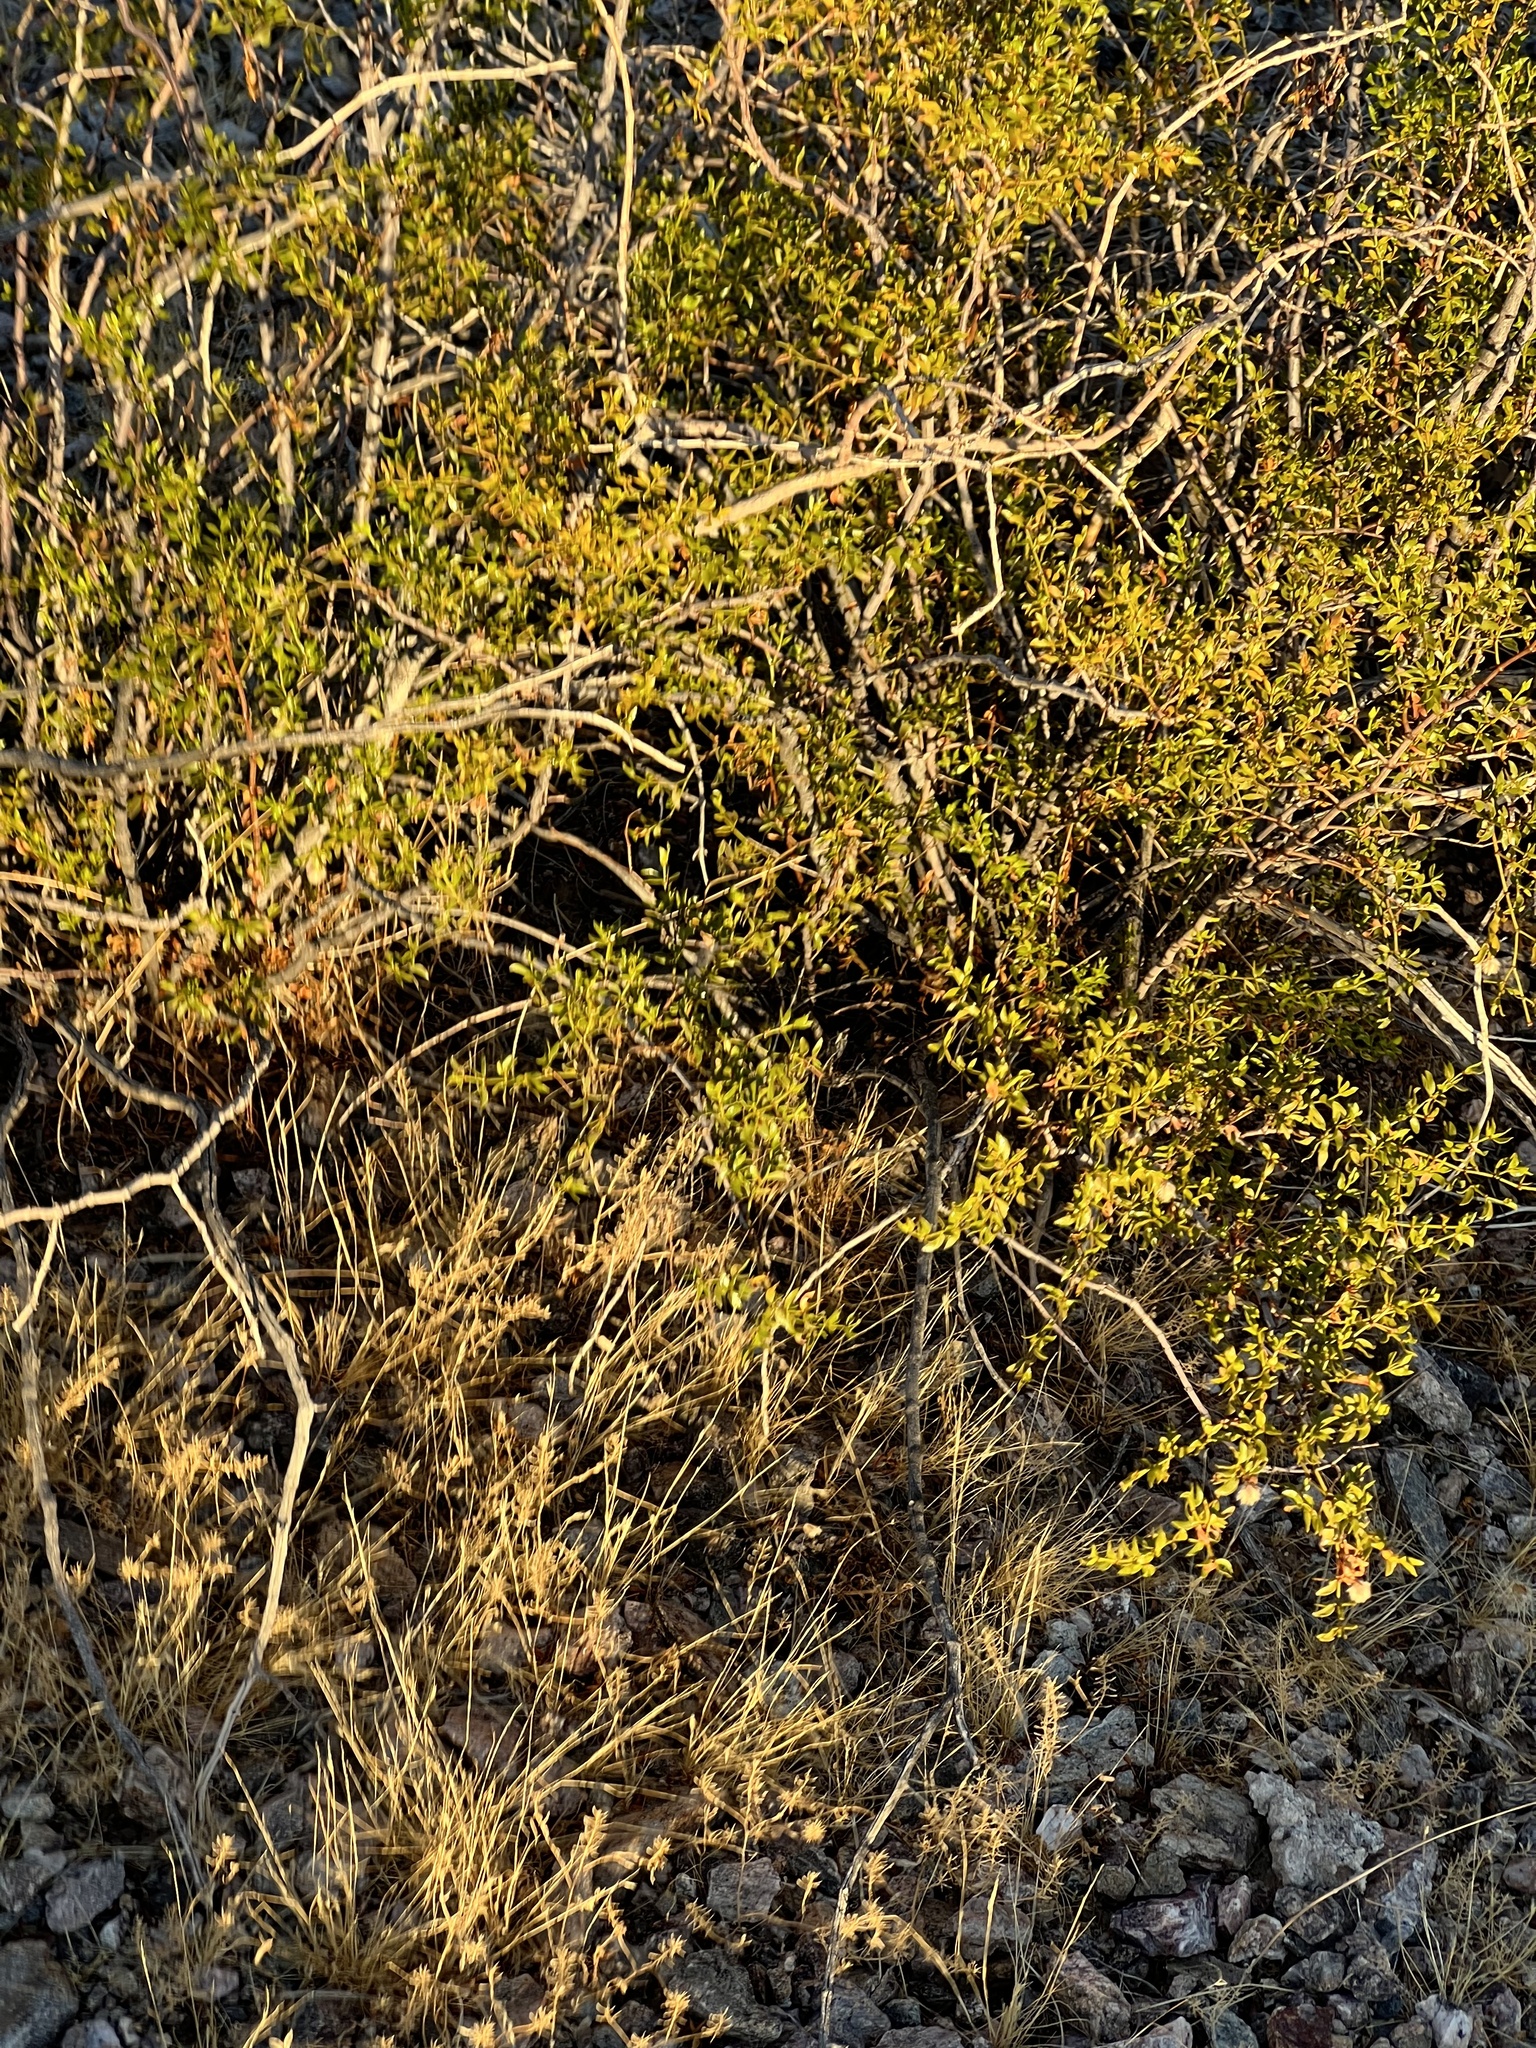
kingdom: Plantae
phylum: Tracheophyta
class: Magnoliopsida
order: Zygophyllales
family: Zygophyllaceae
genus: Larrea
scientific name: Larrea tridentata
